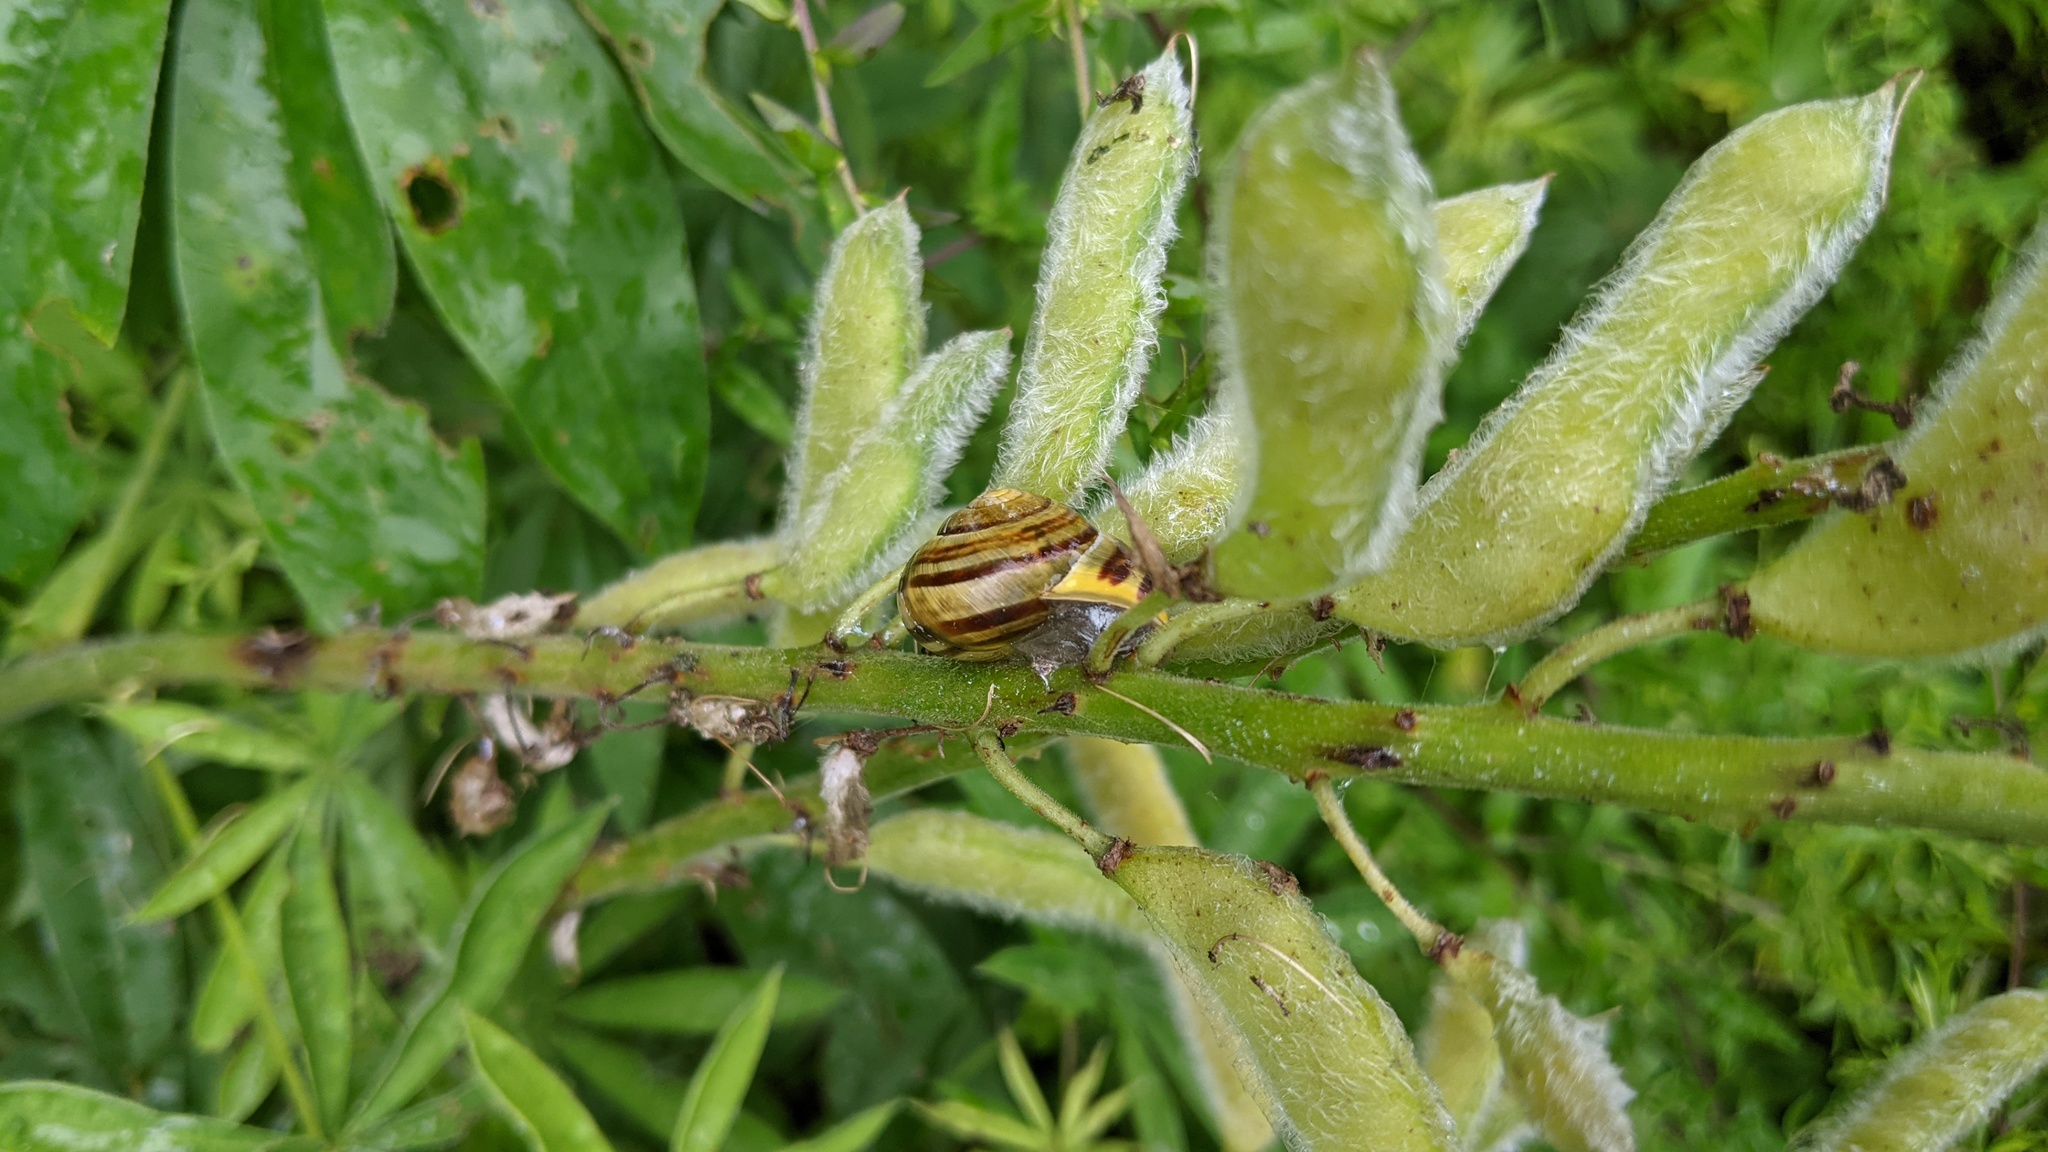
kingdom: Animalia
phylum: Mollusca
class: Gastropoda
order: Stylommatophora
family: Helicidae
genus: Cepaea
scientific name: Cepaea hortensis
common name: White-lip gardensnail
